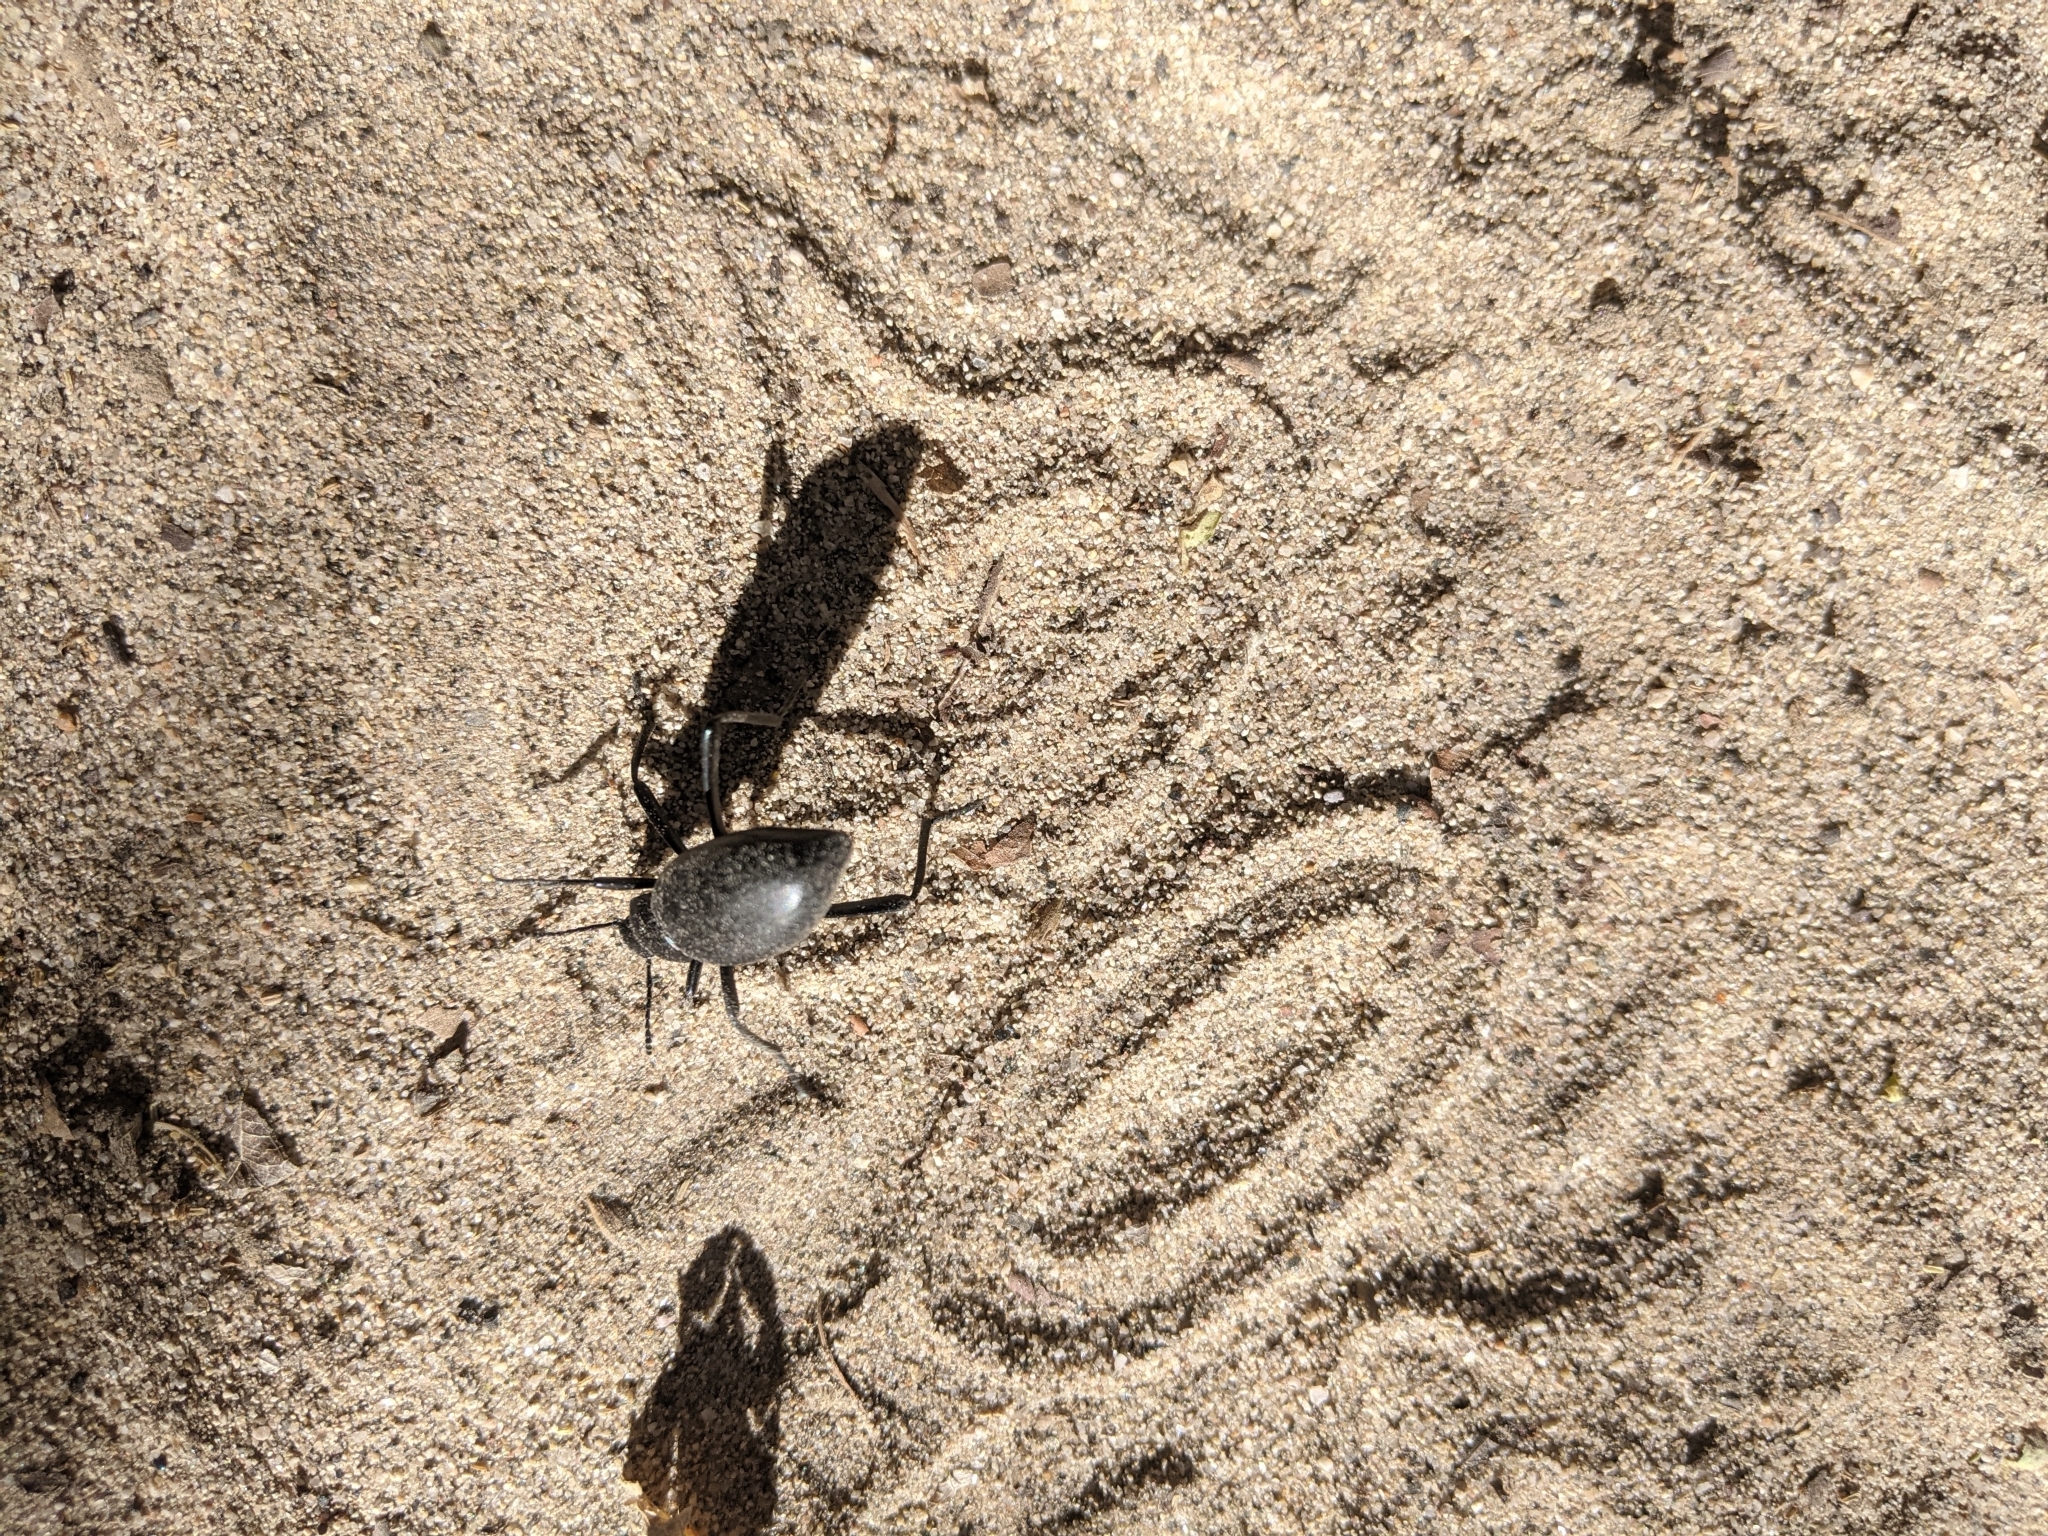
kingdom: Animalia
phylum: Arthropoda
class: Insecta
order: Coleoptera
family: Tenebrionidae
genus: Eleodes
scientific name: Eleodes armata
